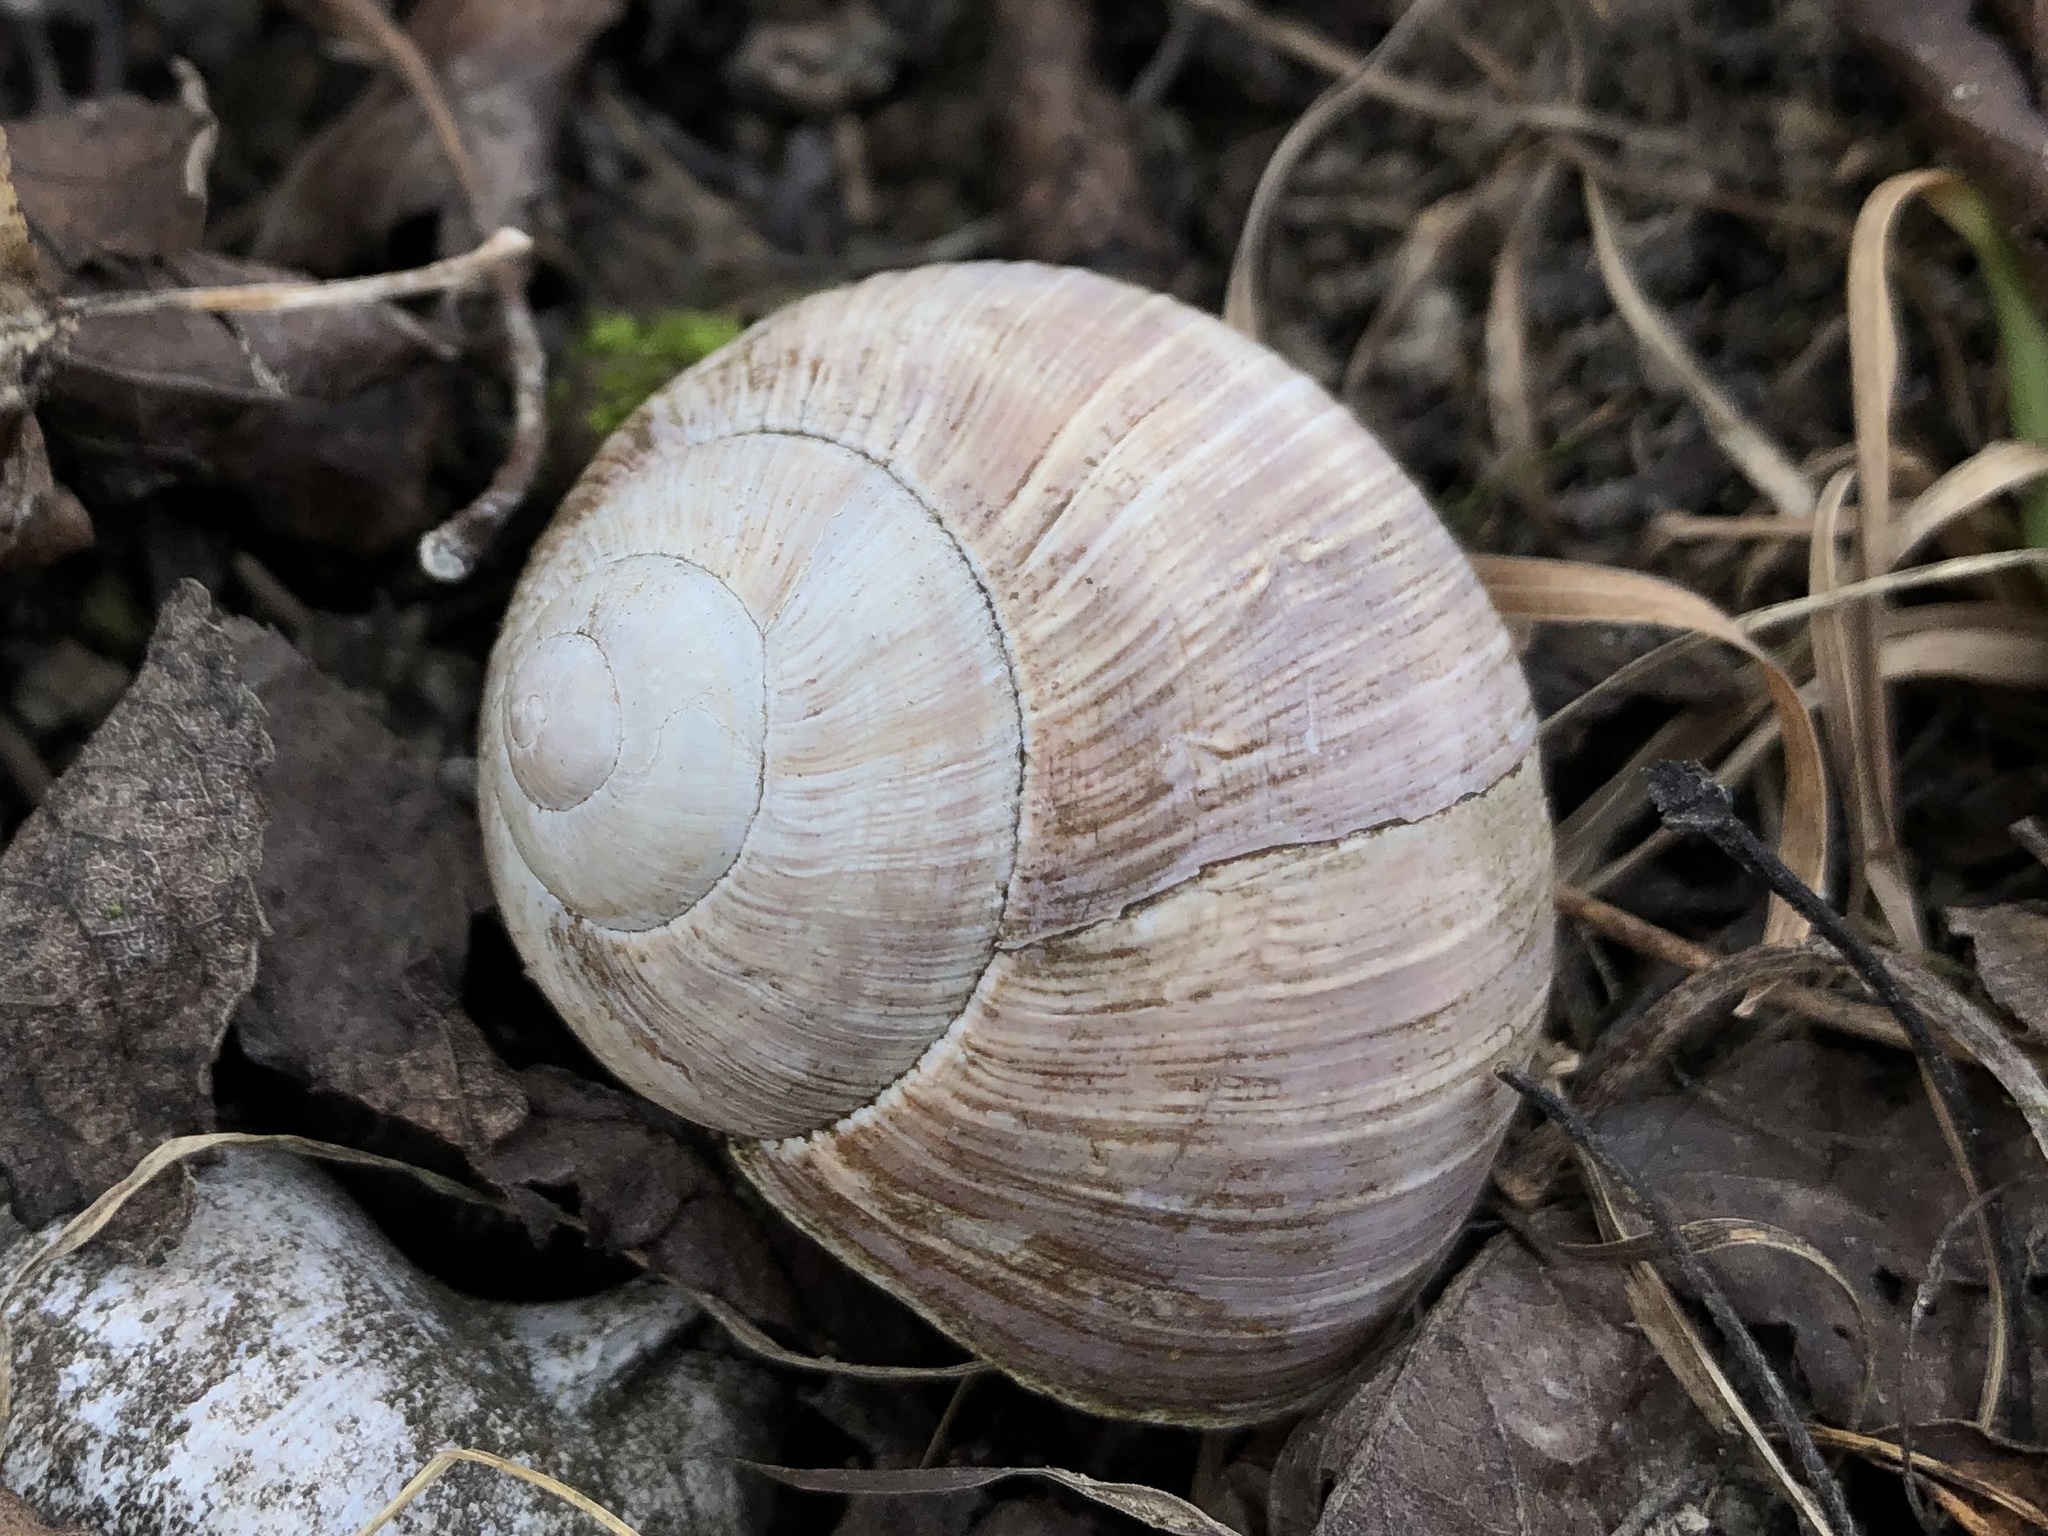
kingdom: Animalia
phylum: Mollusca
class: Gastropoda
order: Stylommatophora
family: Helicidae
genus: Helix
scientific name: Helix pomatia
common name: Roman snail
